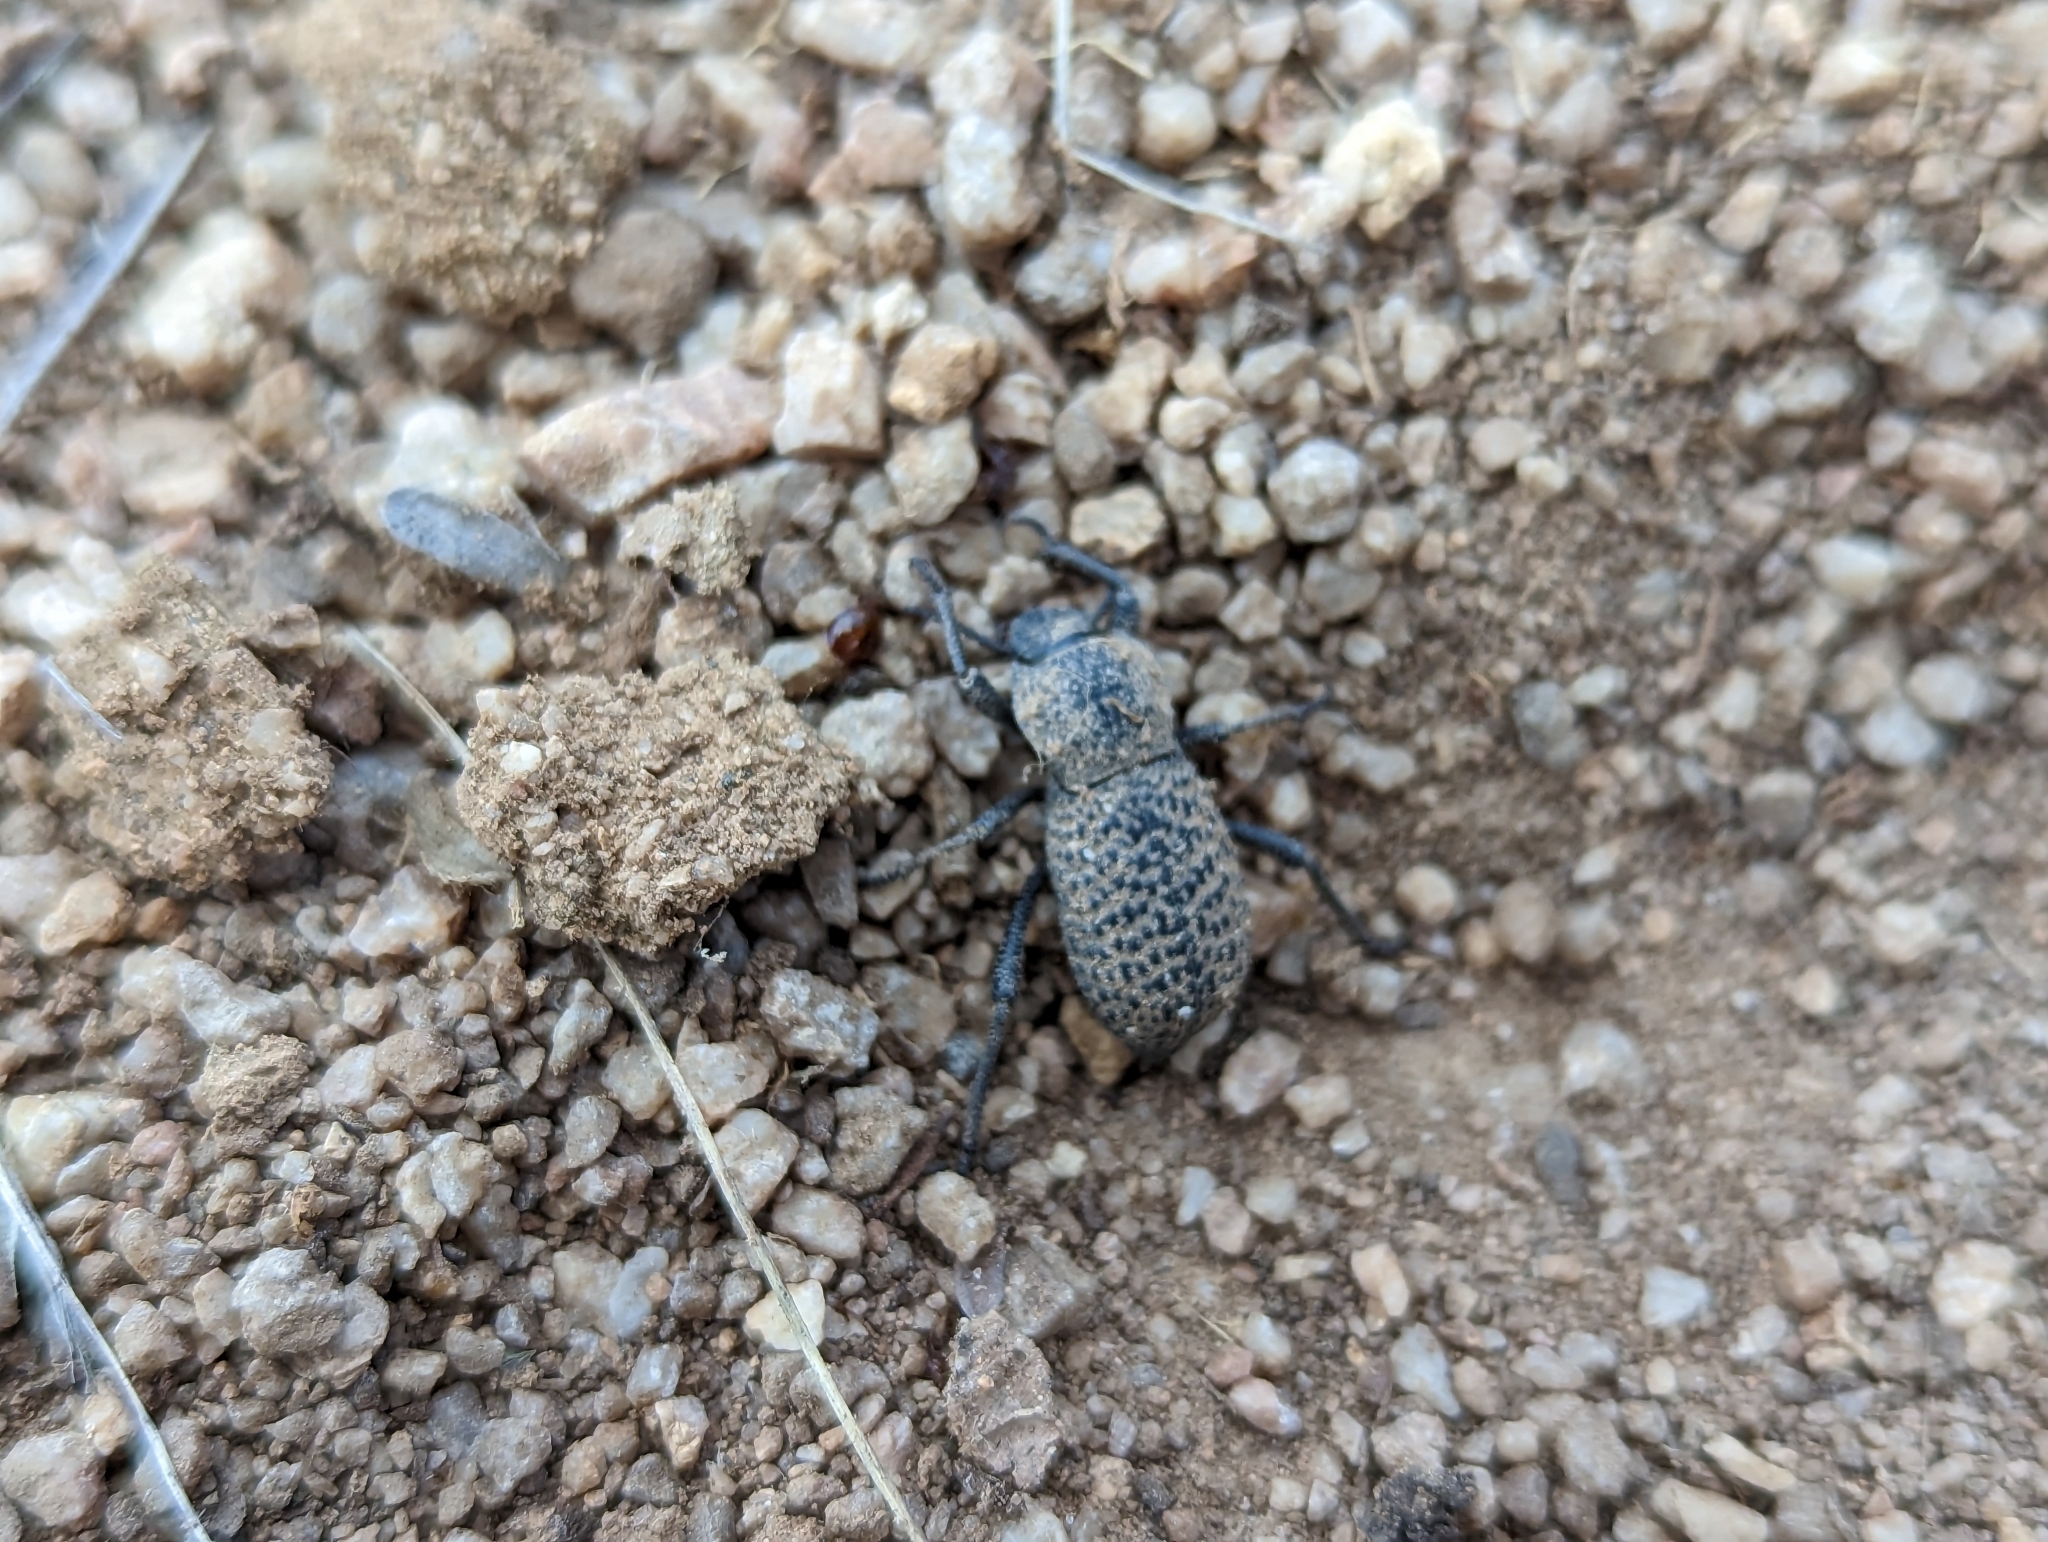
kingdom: Animalia
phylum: Arthropoda
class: Insecta
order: Coleoptera
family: Tenebrionidae
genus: Cryptoglossa
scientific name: Cryptoglossa variolosa
